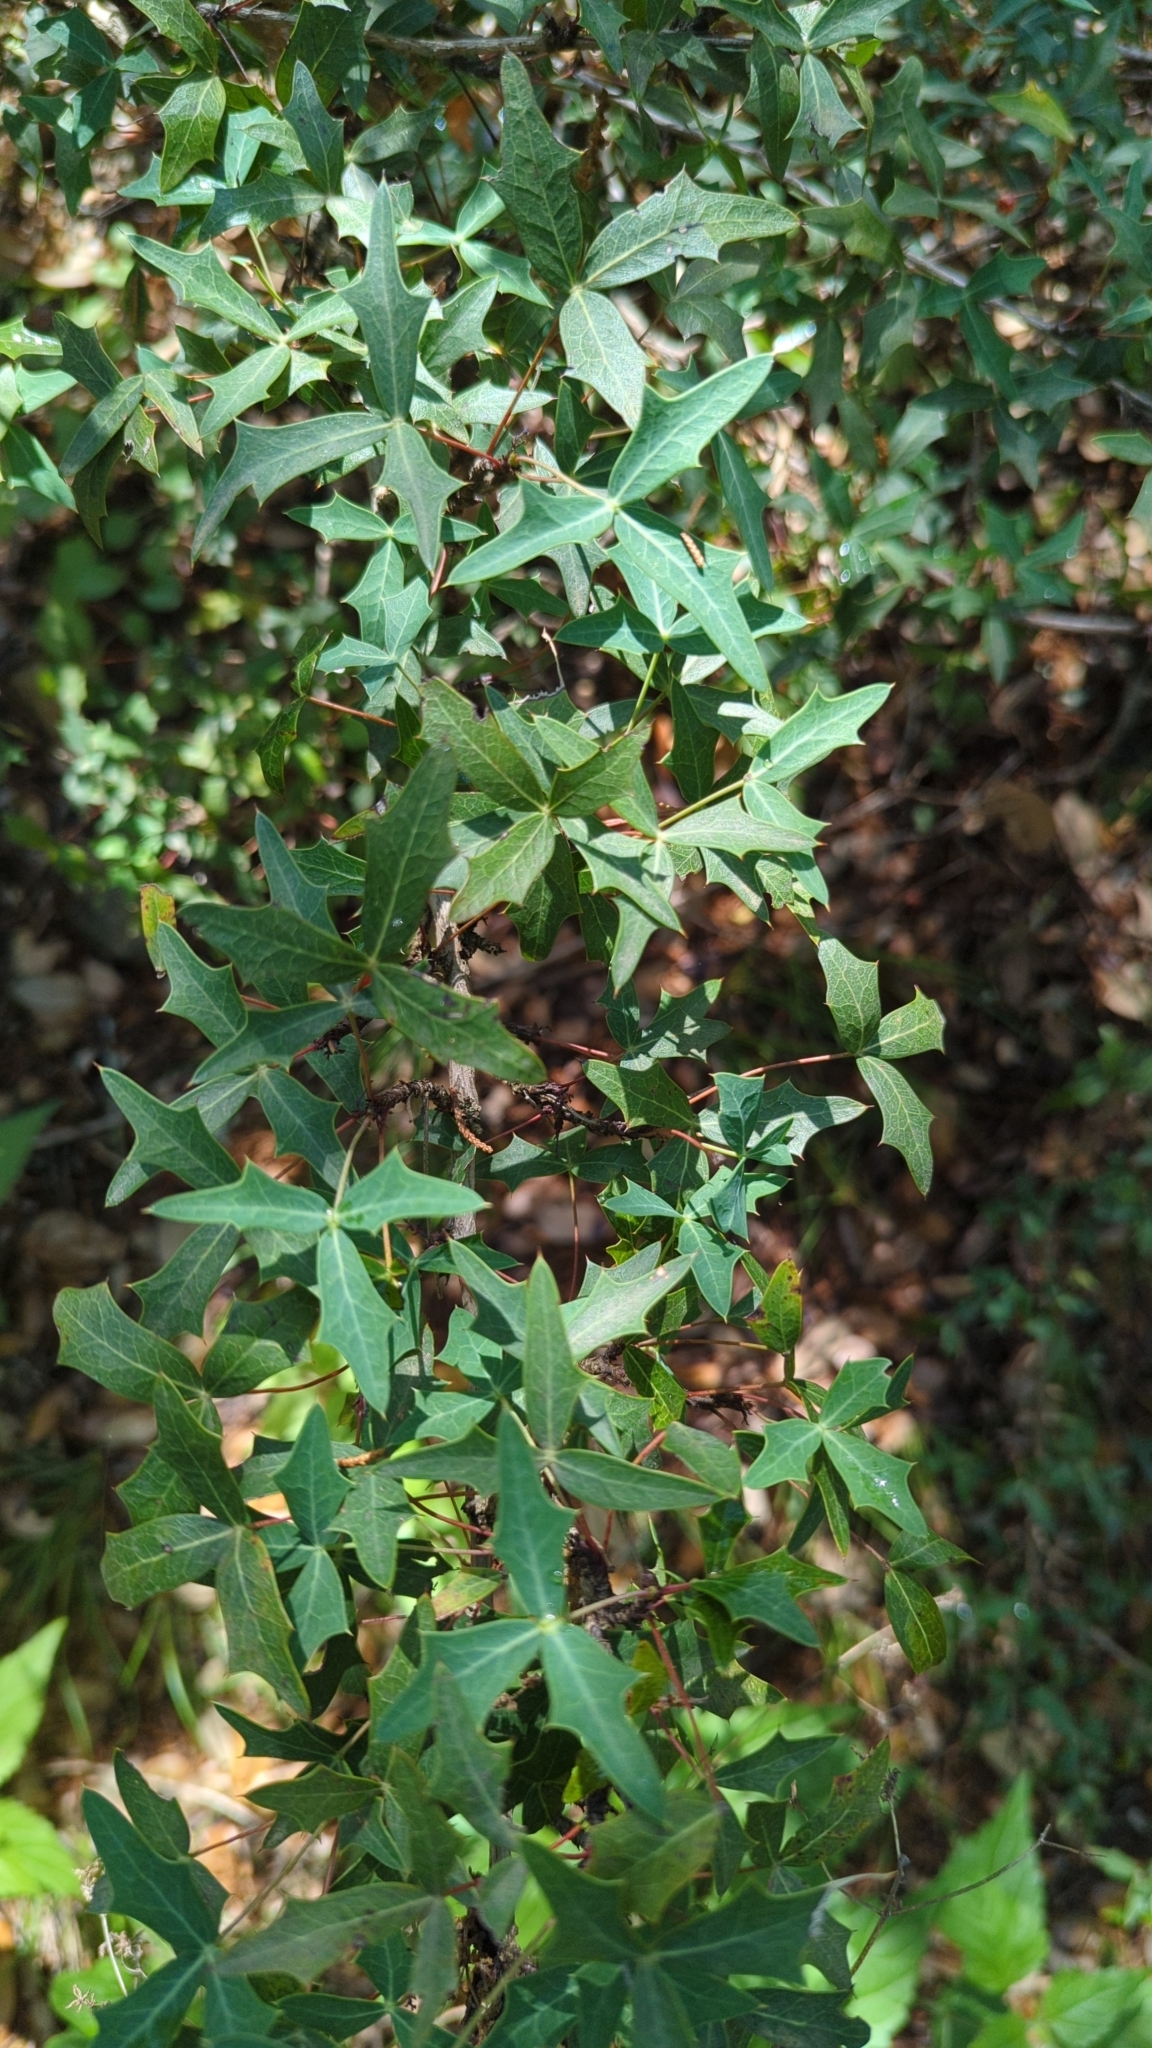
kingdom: Plantae
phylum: Tracheophyta
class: Magnoliopsida
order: Ranunculales
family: Berberidaceae
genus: Alloberberis
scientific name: Alloberberis trifoliolata
